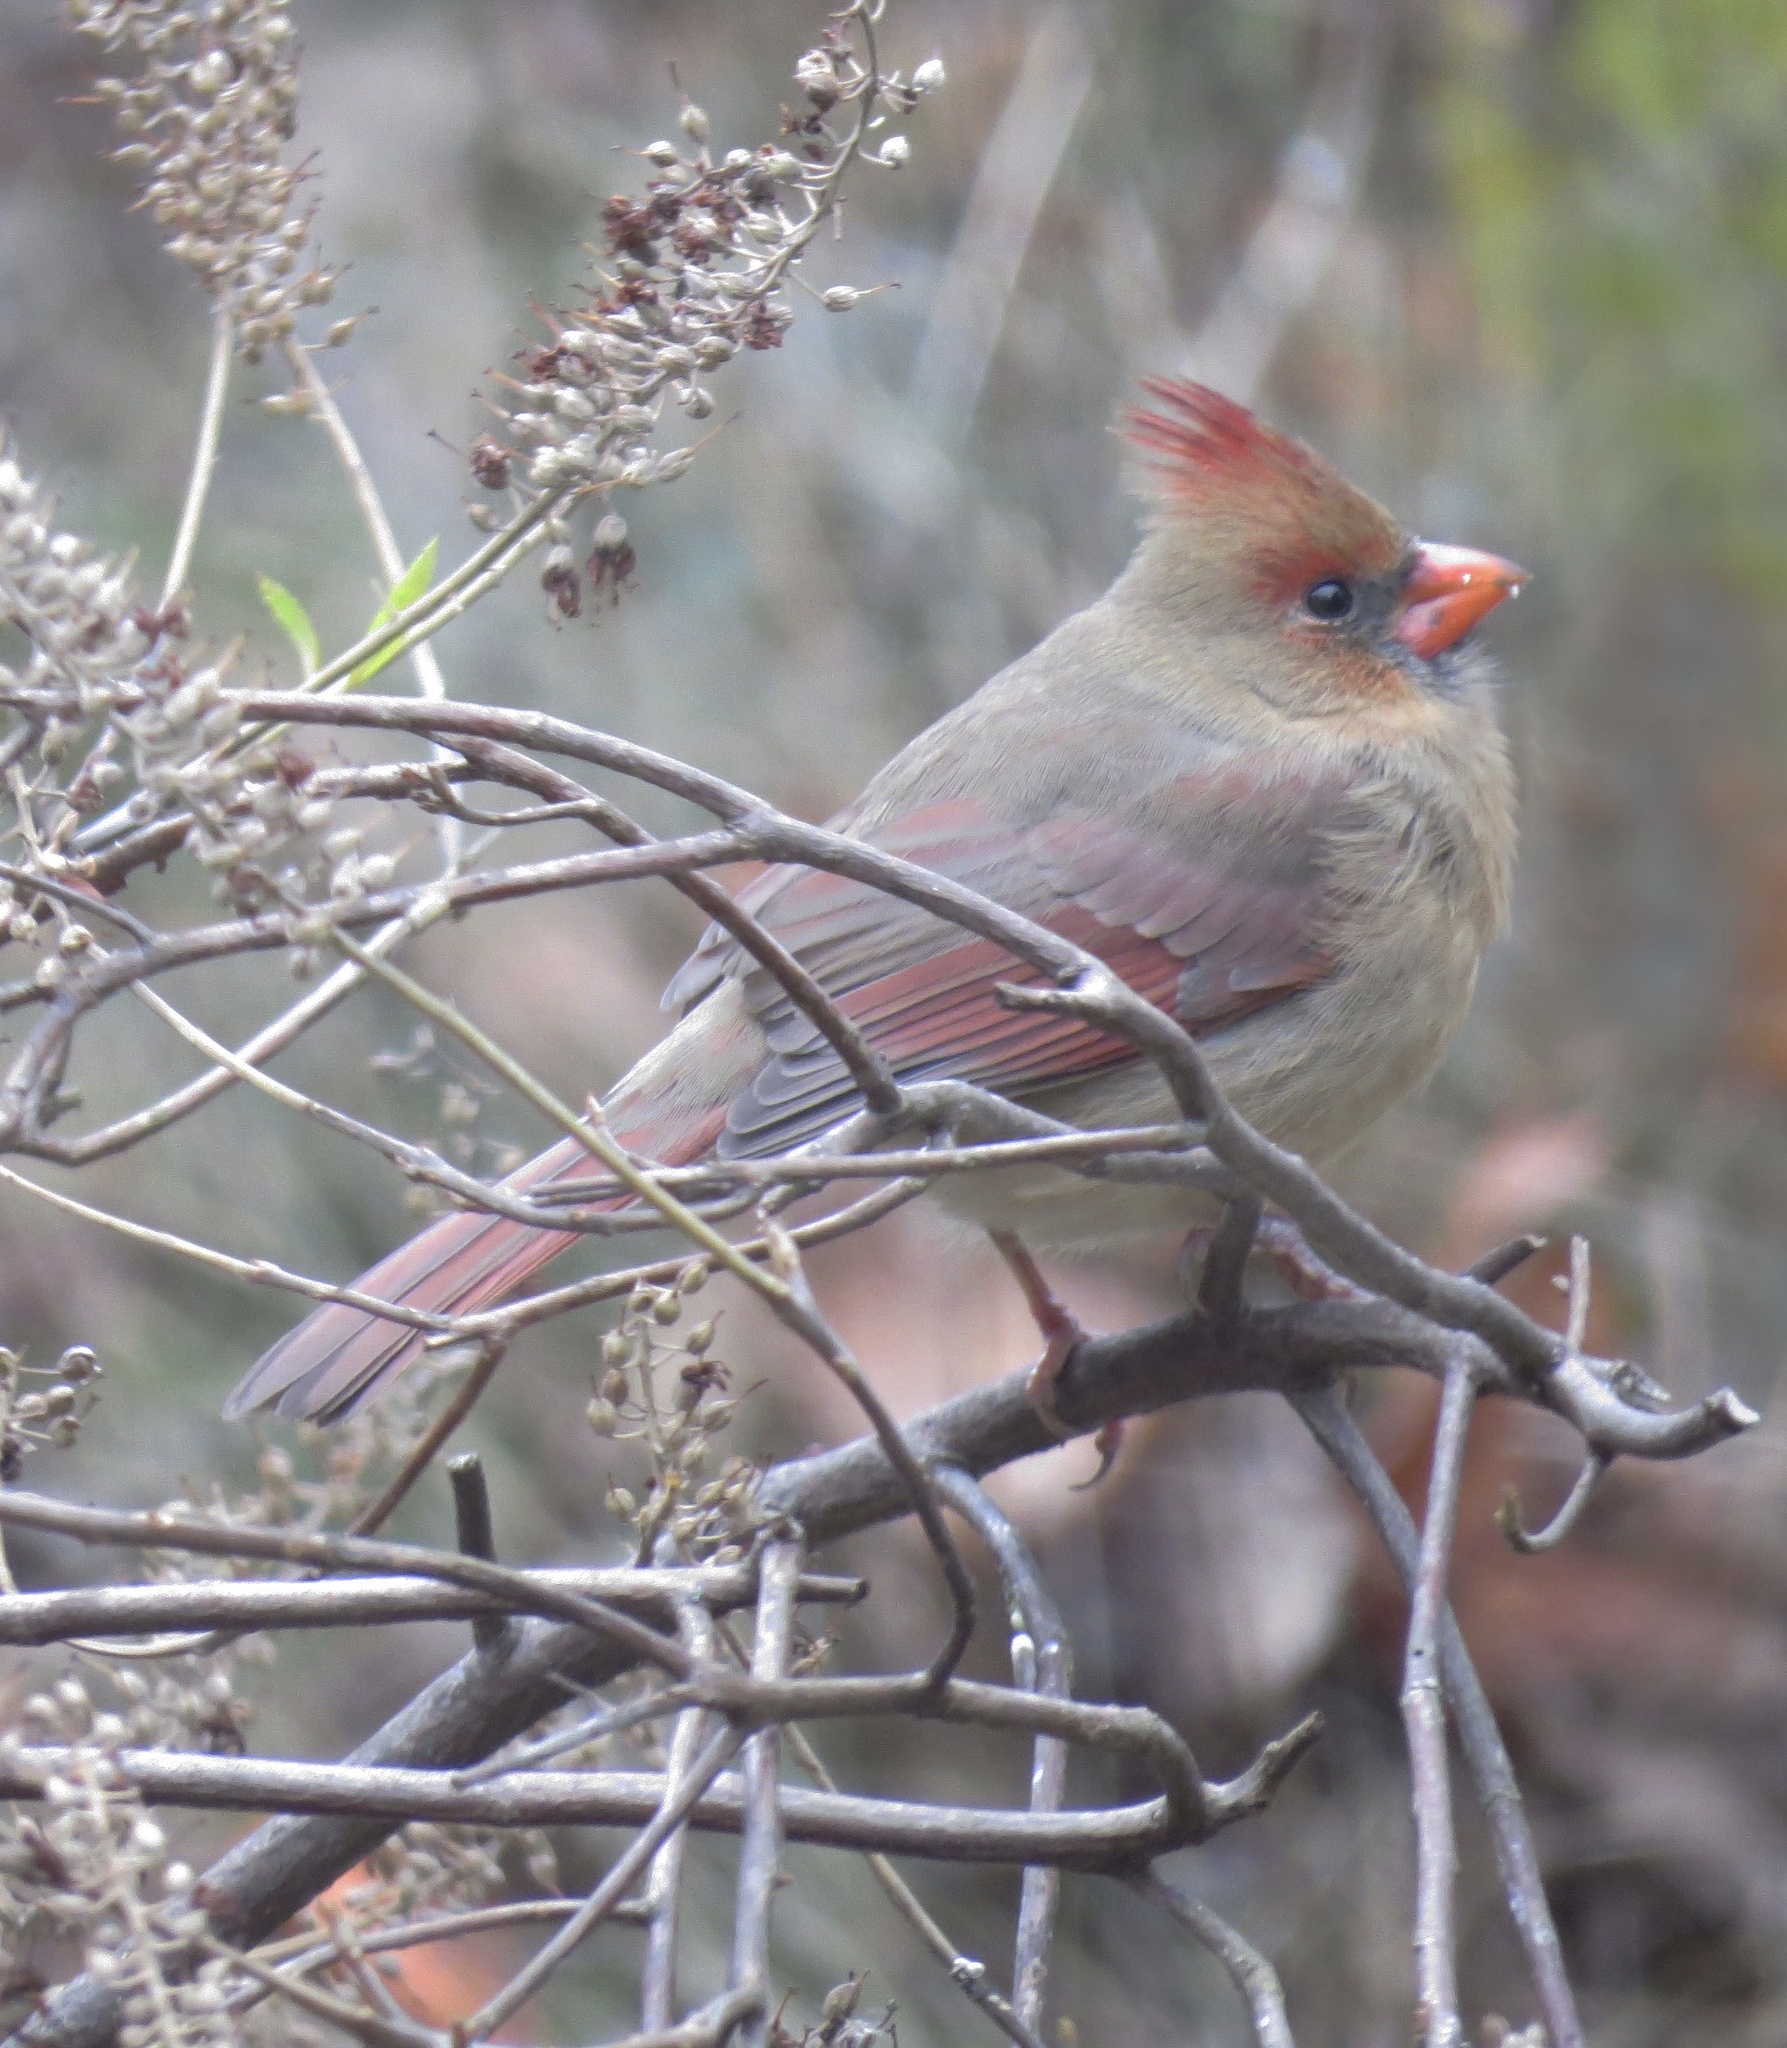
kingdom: Animalia
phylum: Chordata
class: Aves
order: Passeriformes
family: Cardinalidae
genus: Cardinalis
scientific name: Cardinalis cardinalis
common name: Northern cardinal
